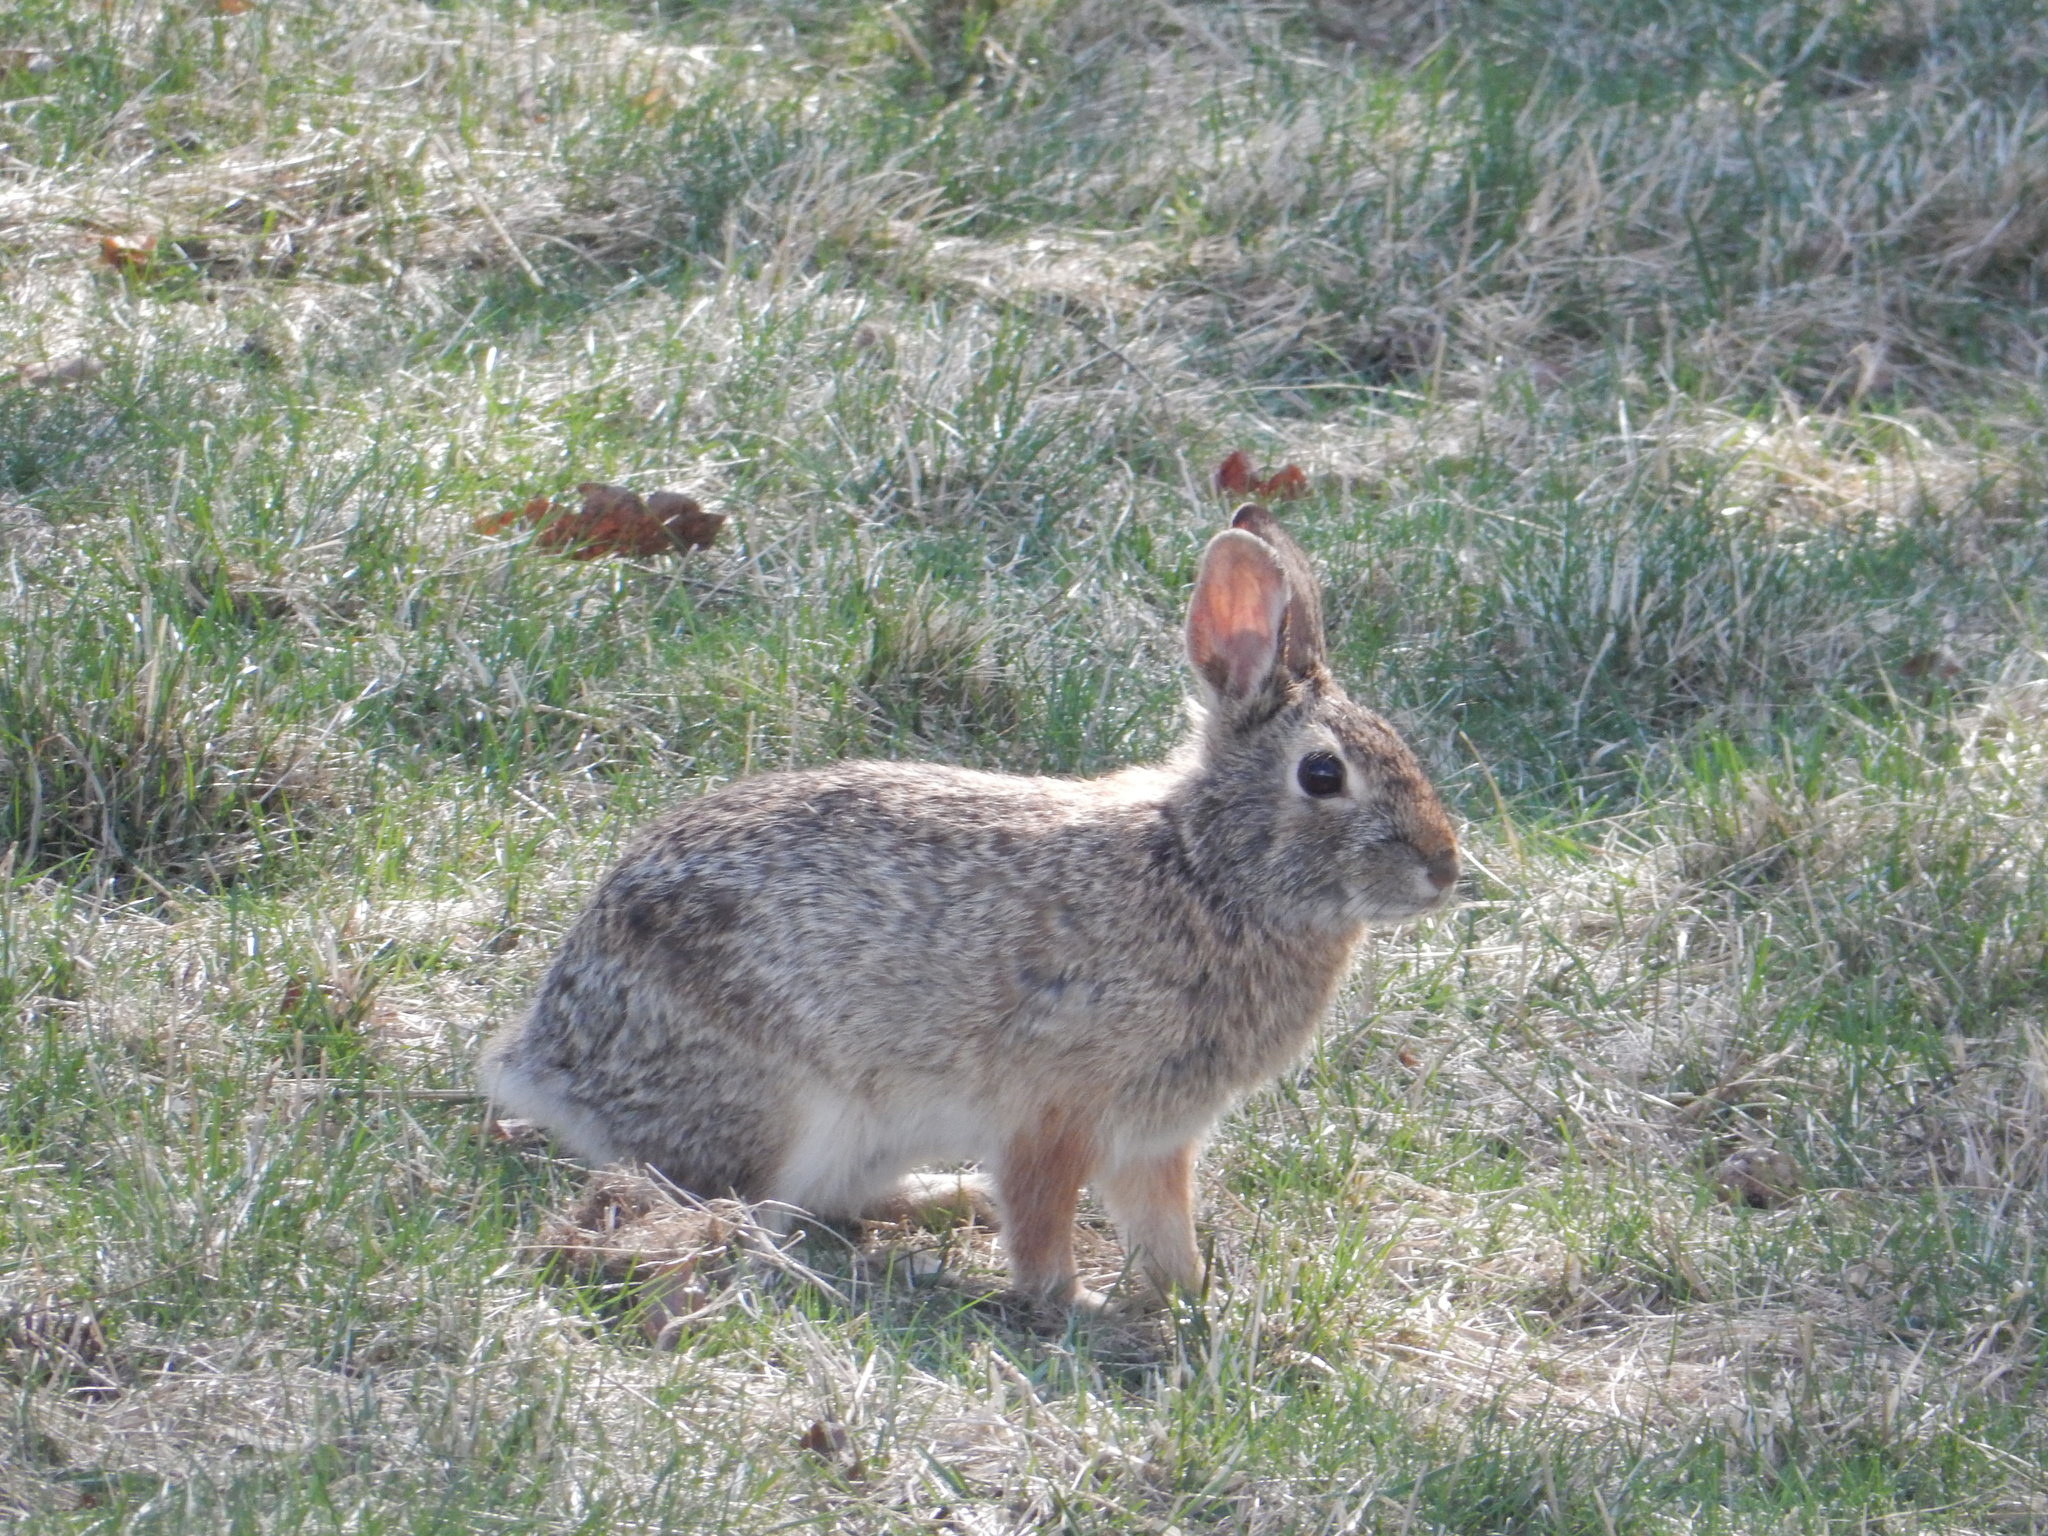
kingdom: Animalia
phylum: Chordata
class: Mammalia
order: Lagomorpha
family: Leporidae
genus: Sylvilagus
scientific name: Sylvilagus floridanus
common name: Eastern cottontail
